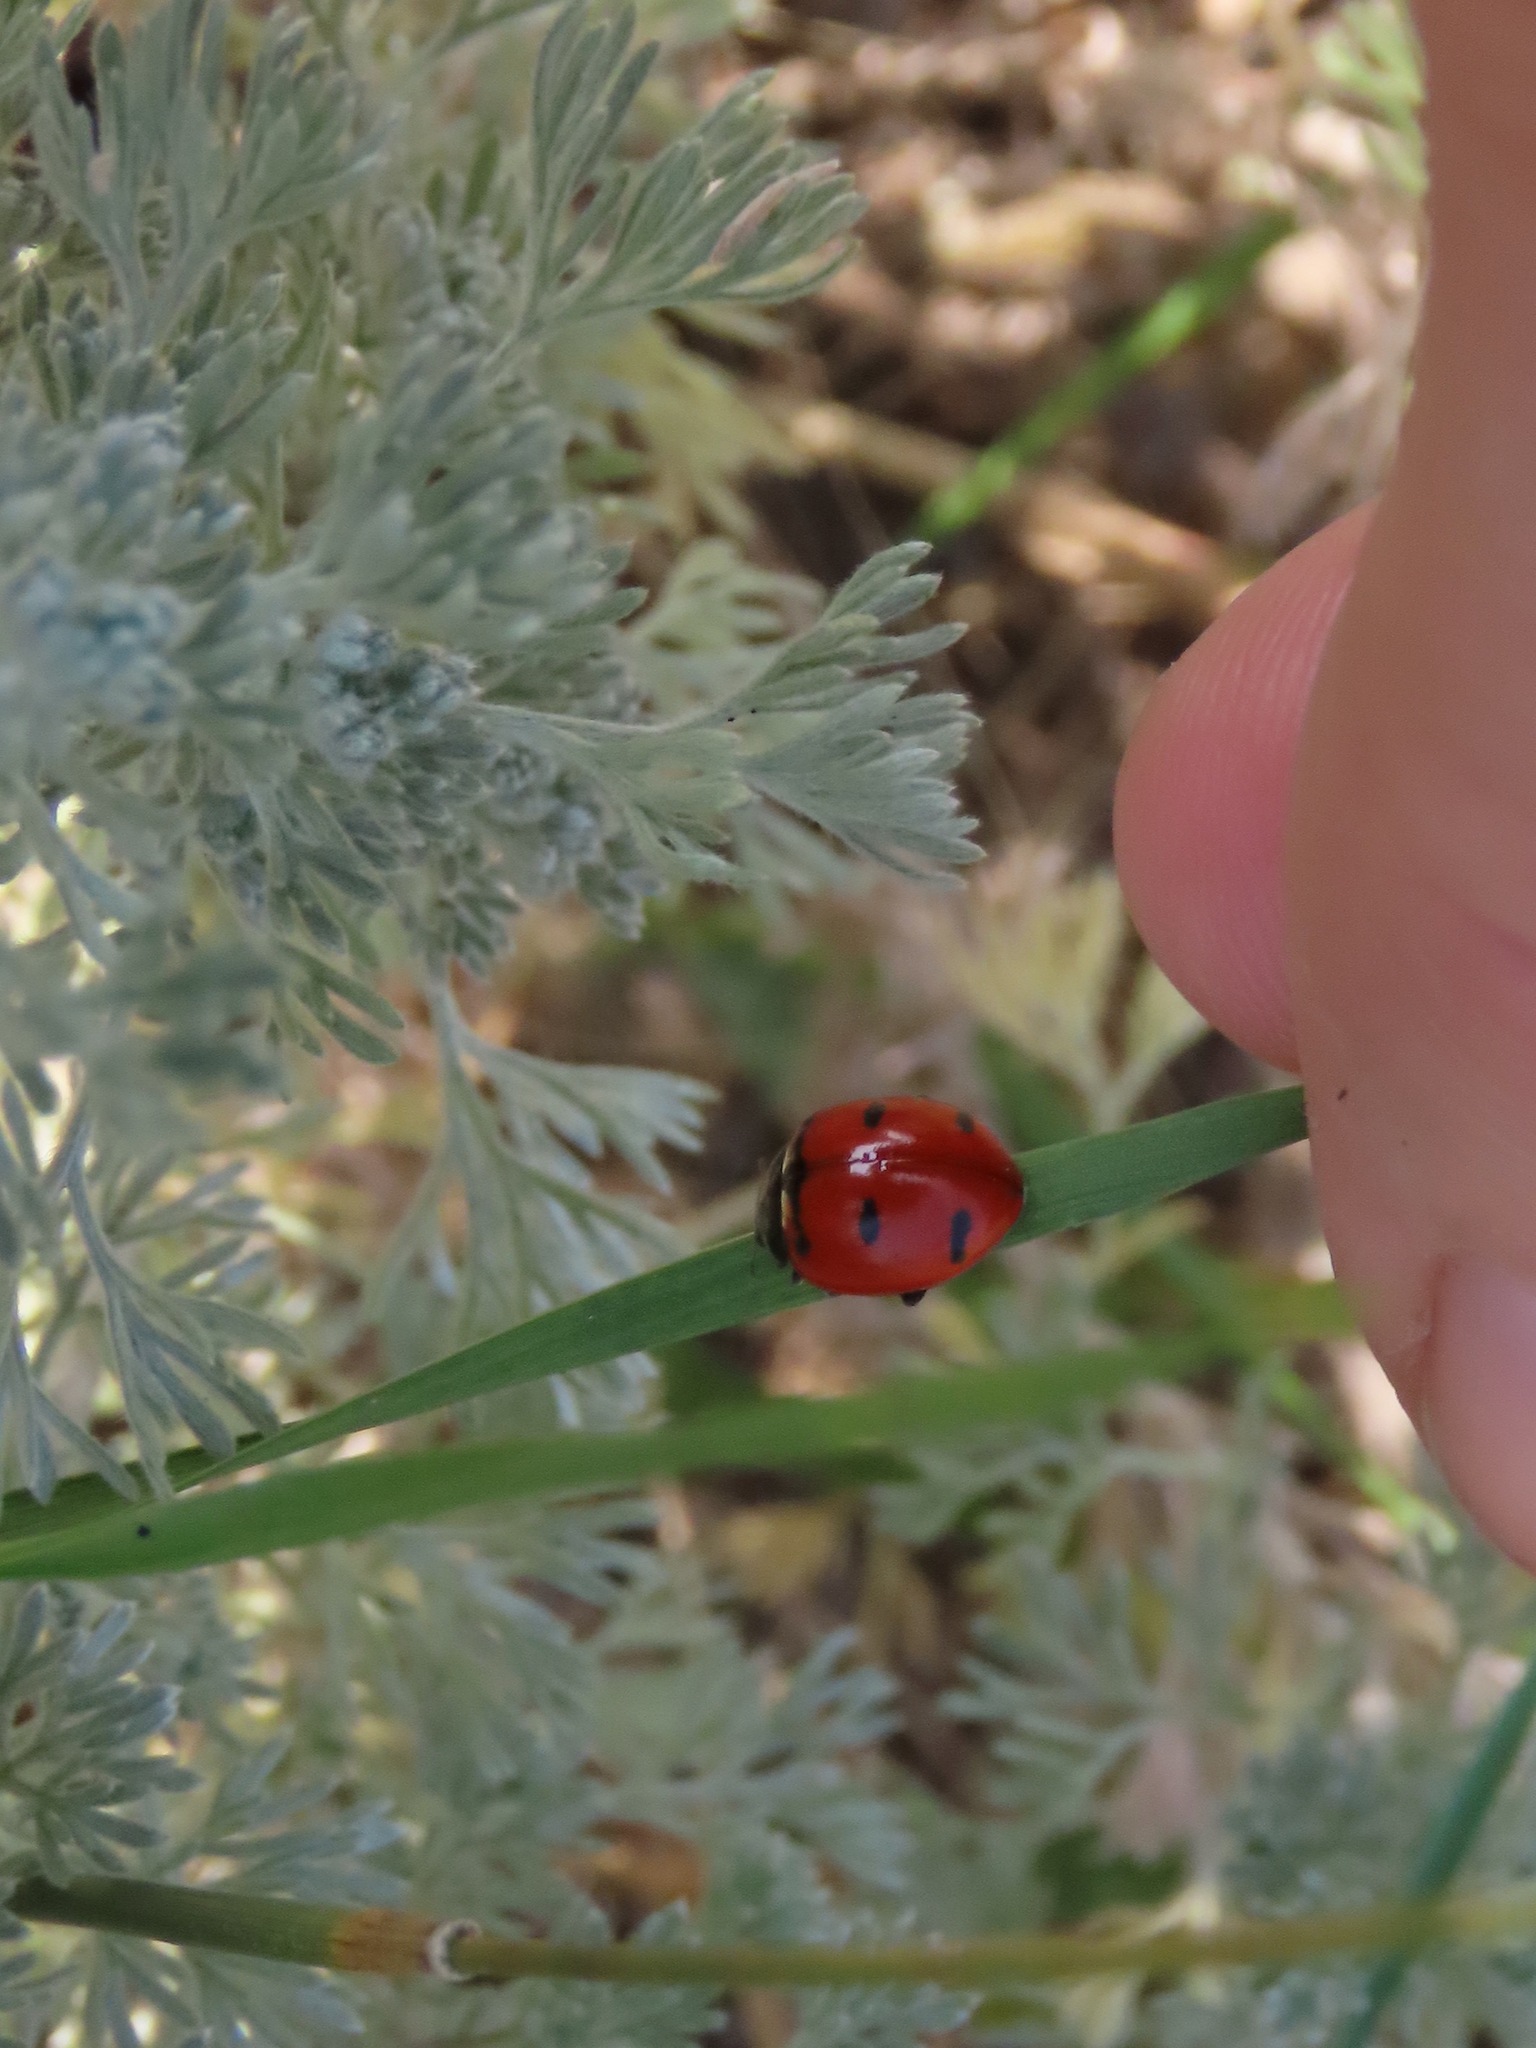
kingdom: Animalia
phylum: Arthropoda
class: Insecta
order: Coleoptera
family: Coccinellidae
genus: Coccinella
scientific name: Coccinella transversoguttata
